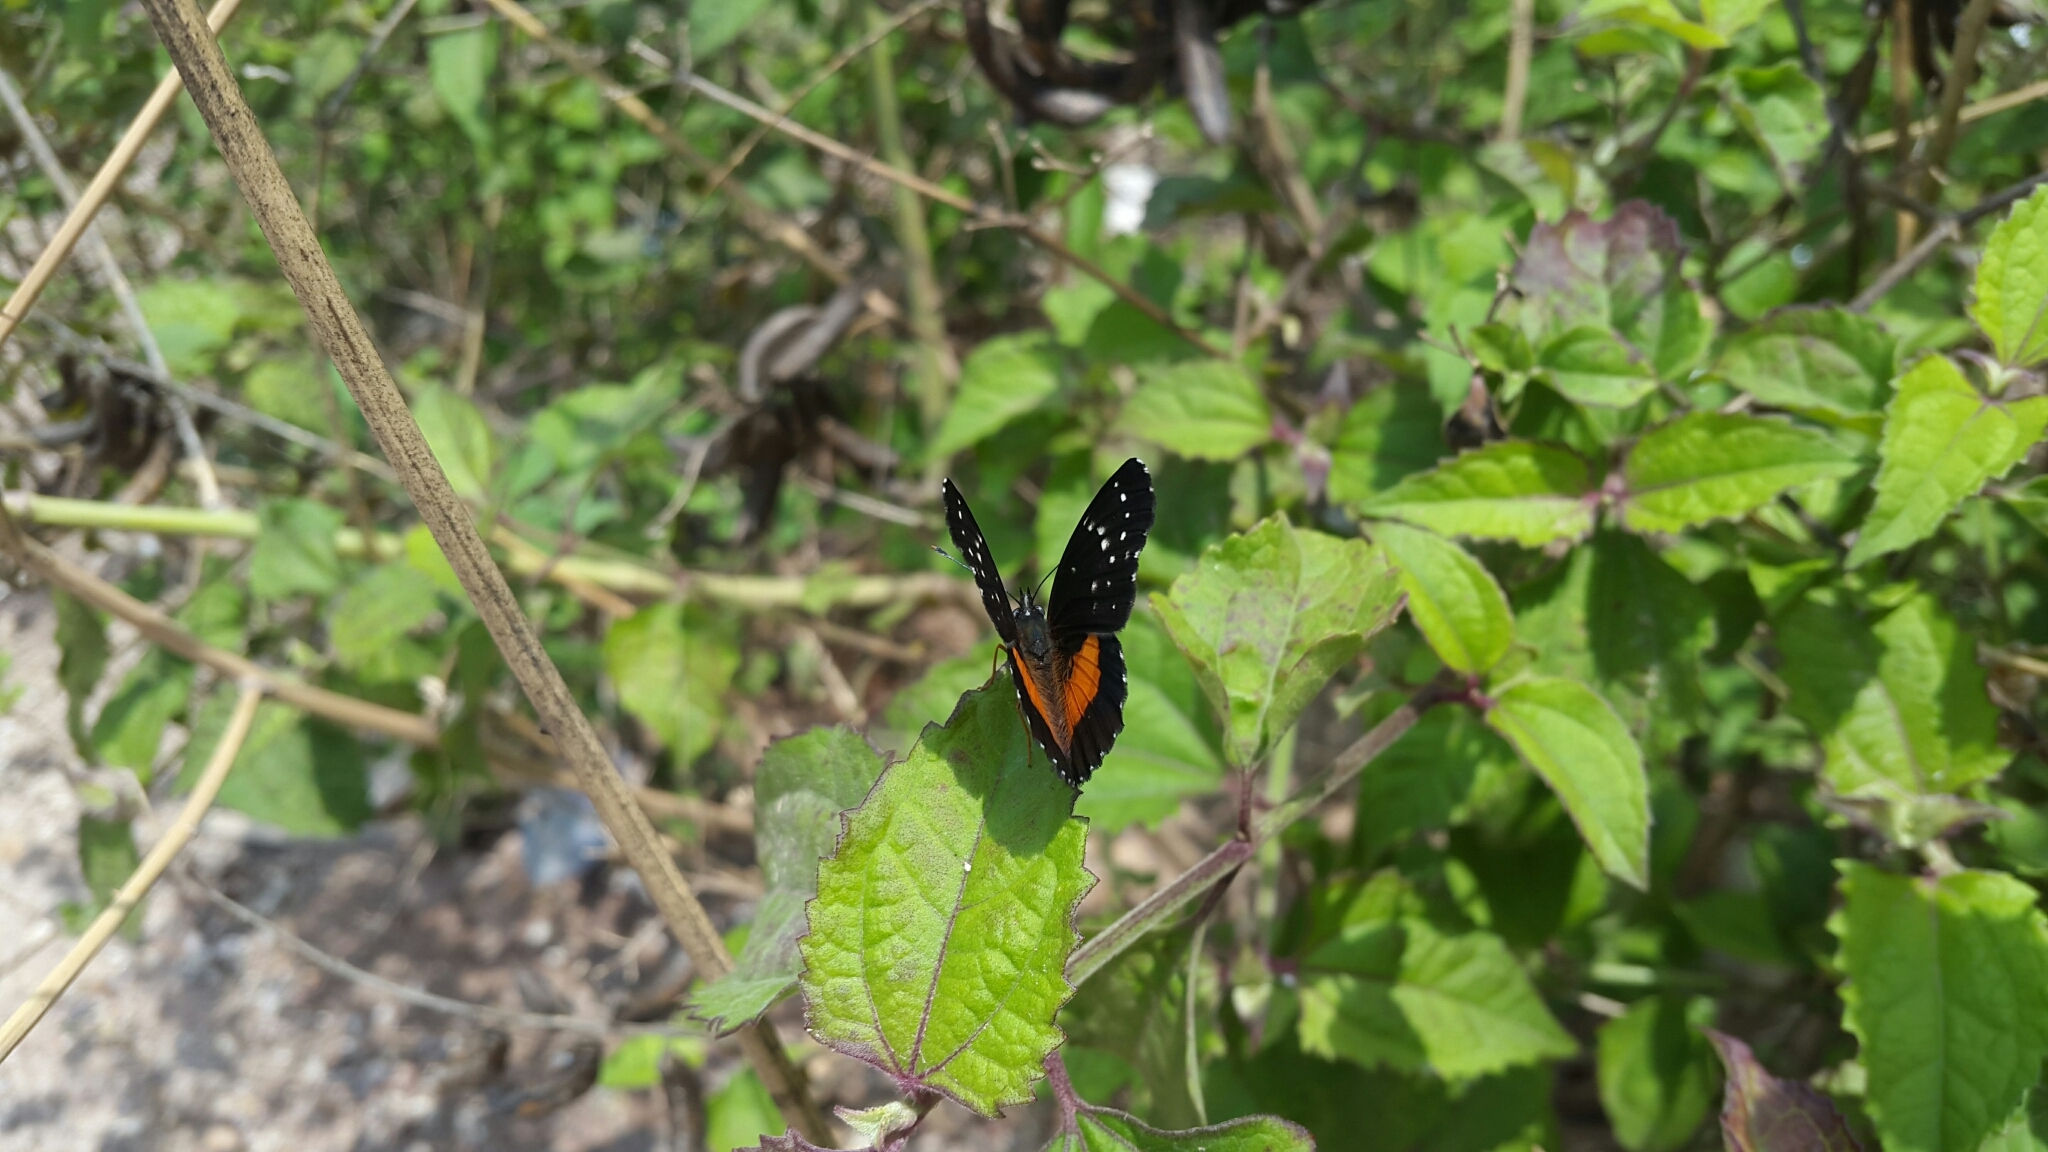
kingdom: Animalia
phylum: Arthropoda
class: Insecta
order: Lepidoptera
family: Nymphalidae
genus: Chlosyne
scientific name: Chlosyne lacinia
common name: Bordered patch
